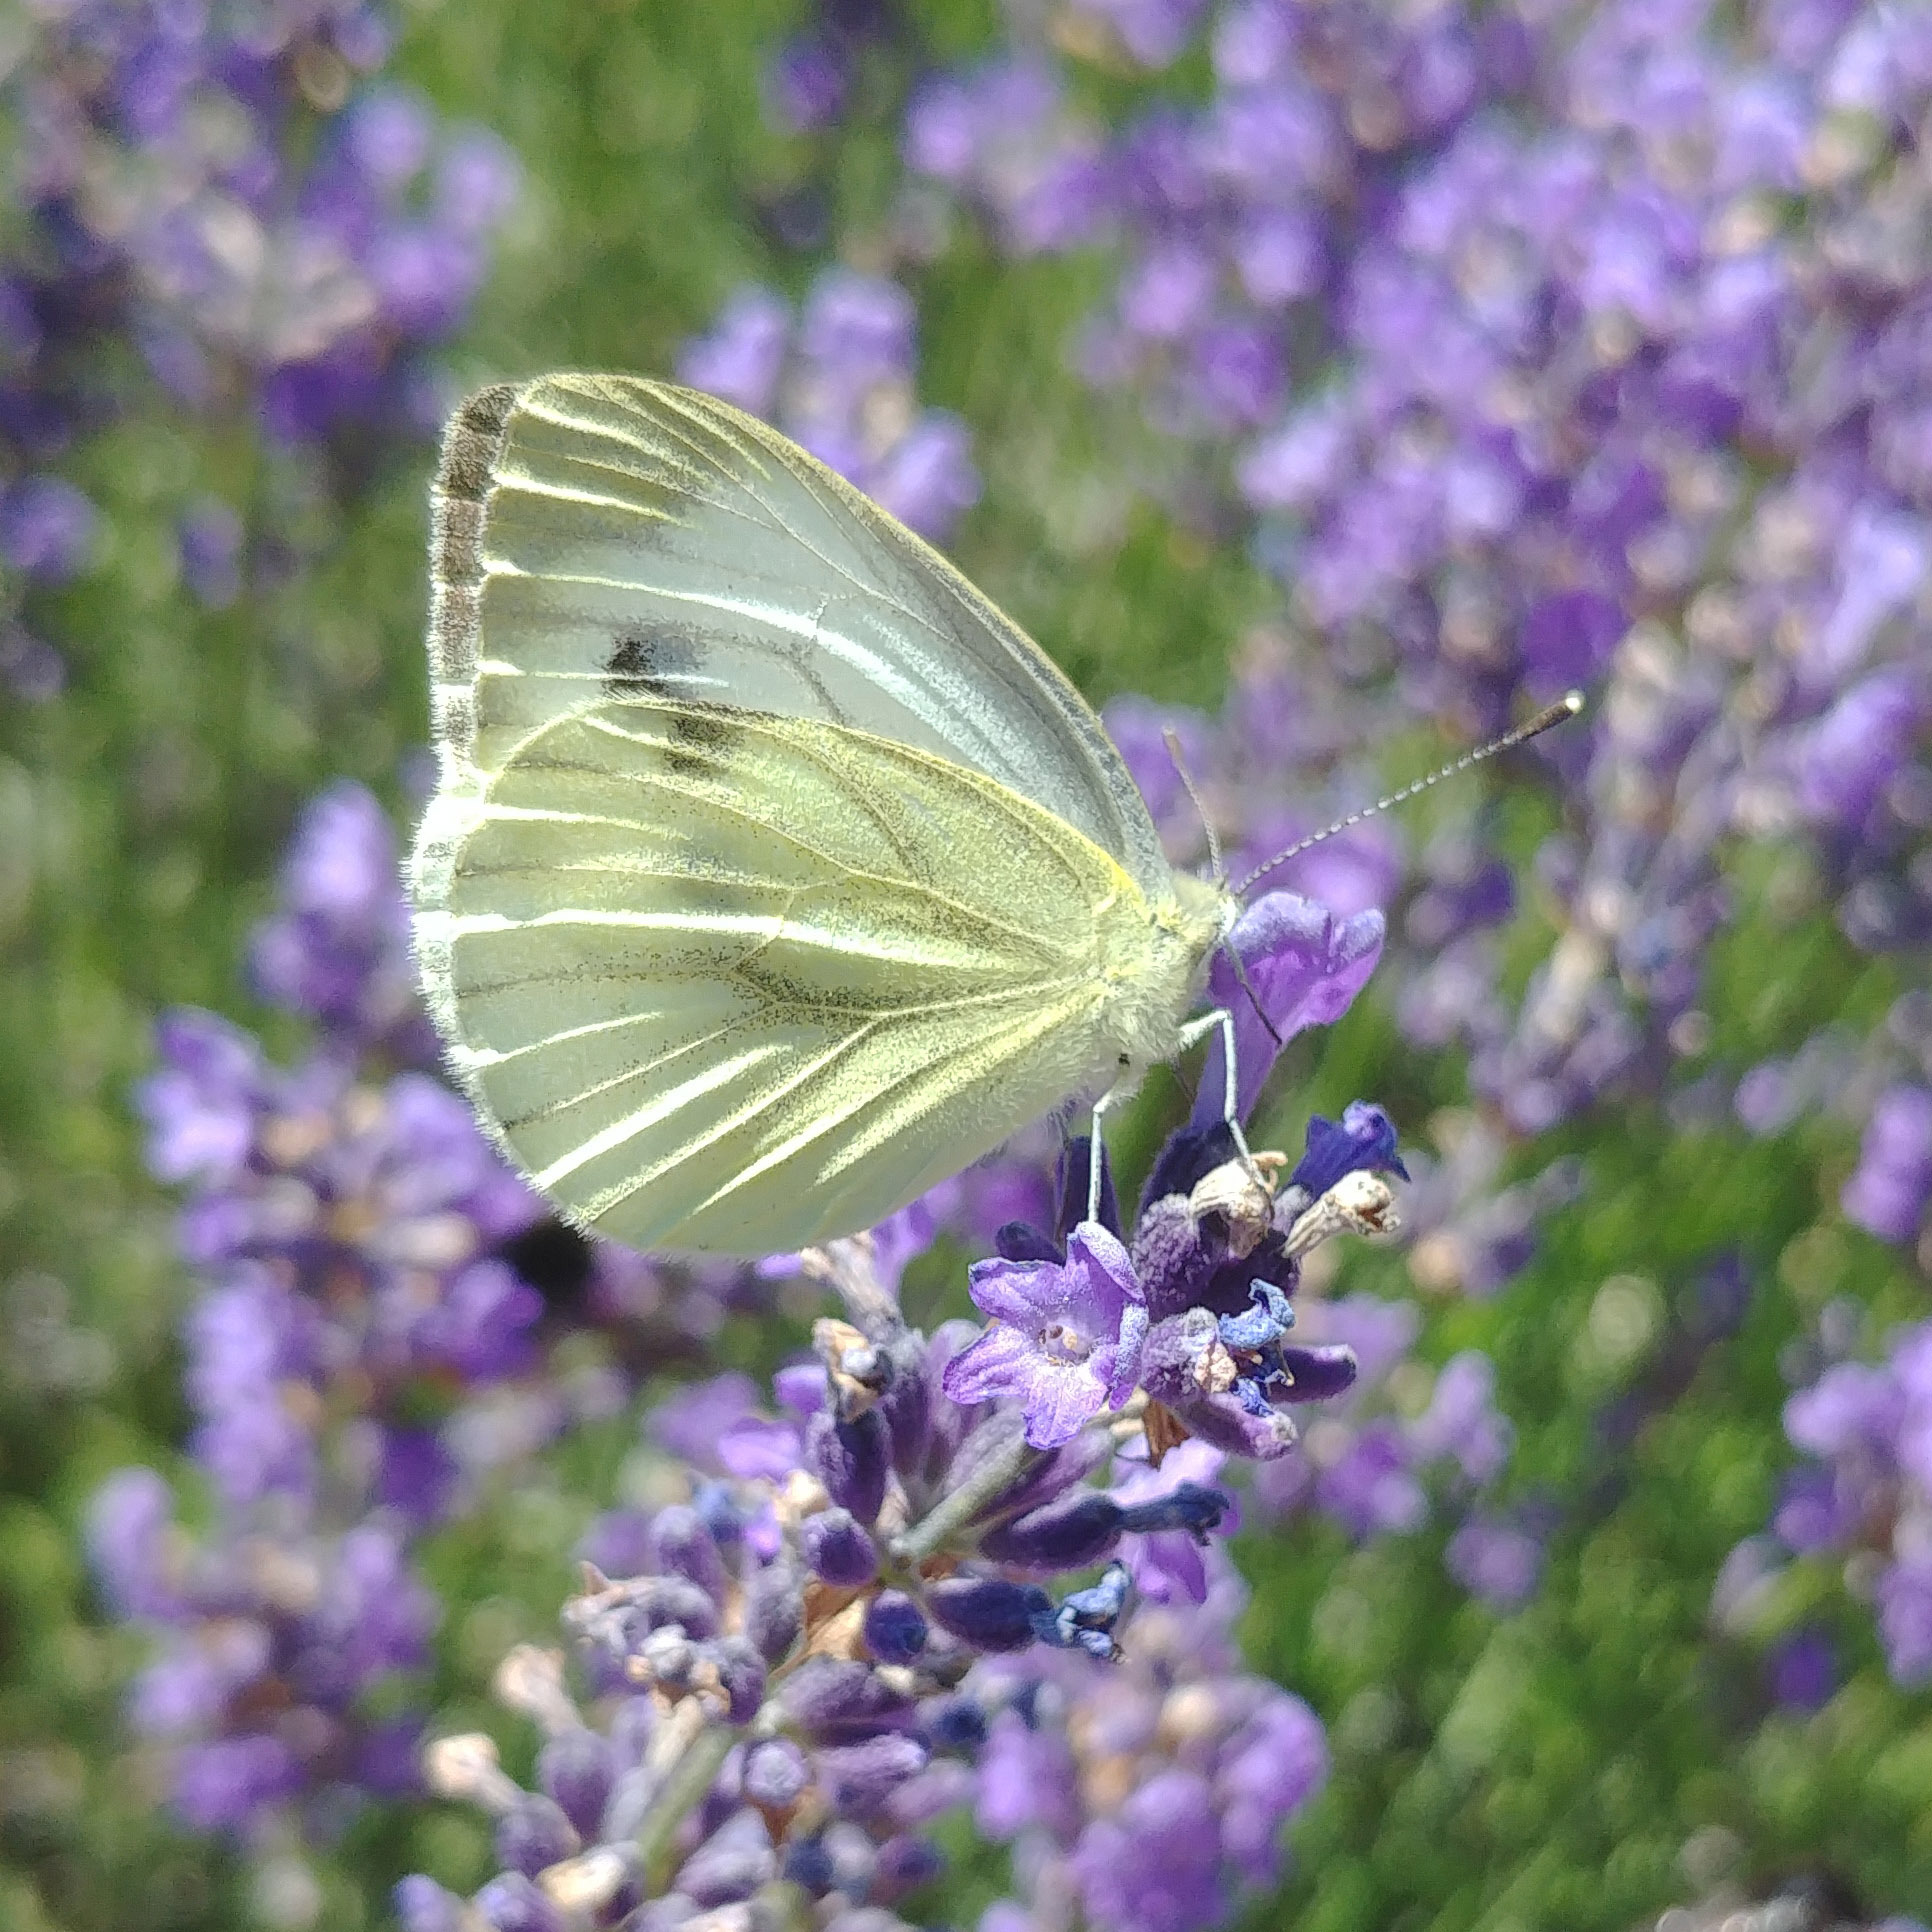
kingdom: Animalia
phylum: Arthropoda
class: Insecta
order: Lepidoptera
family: Pieridae
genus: Pieris
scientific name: Pieris napi
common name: Green-veined white
